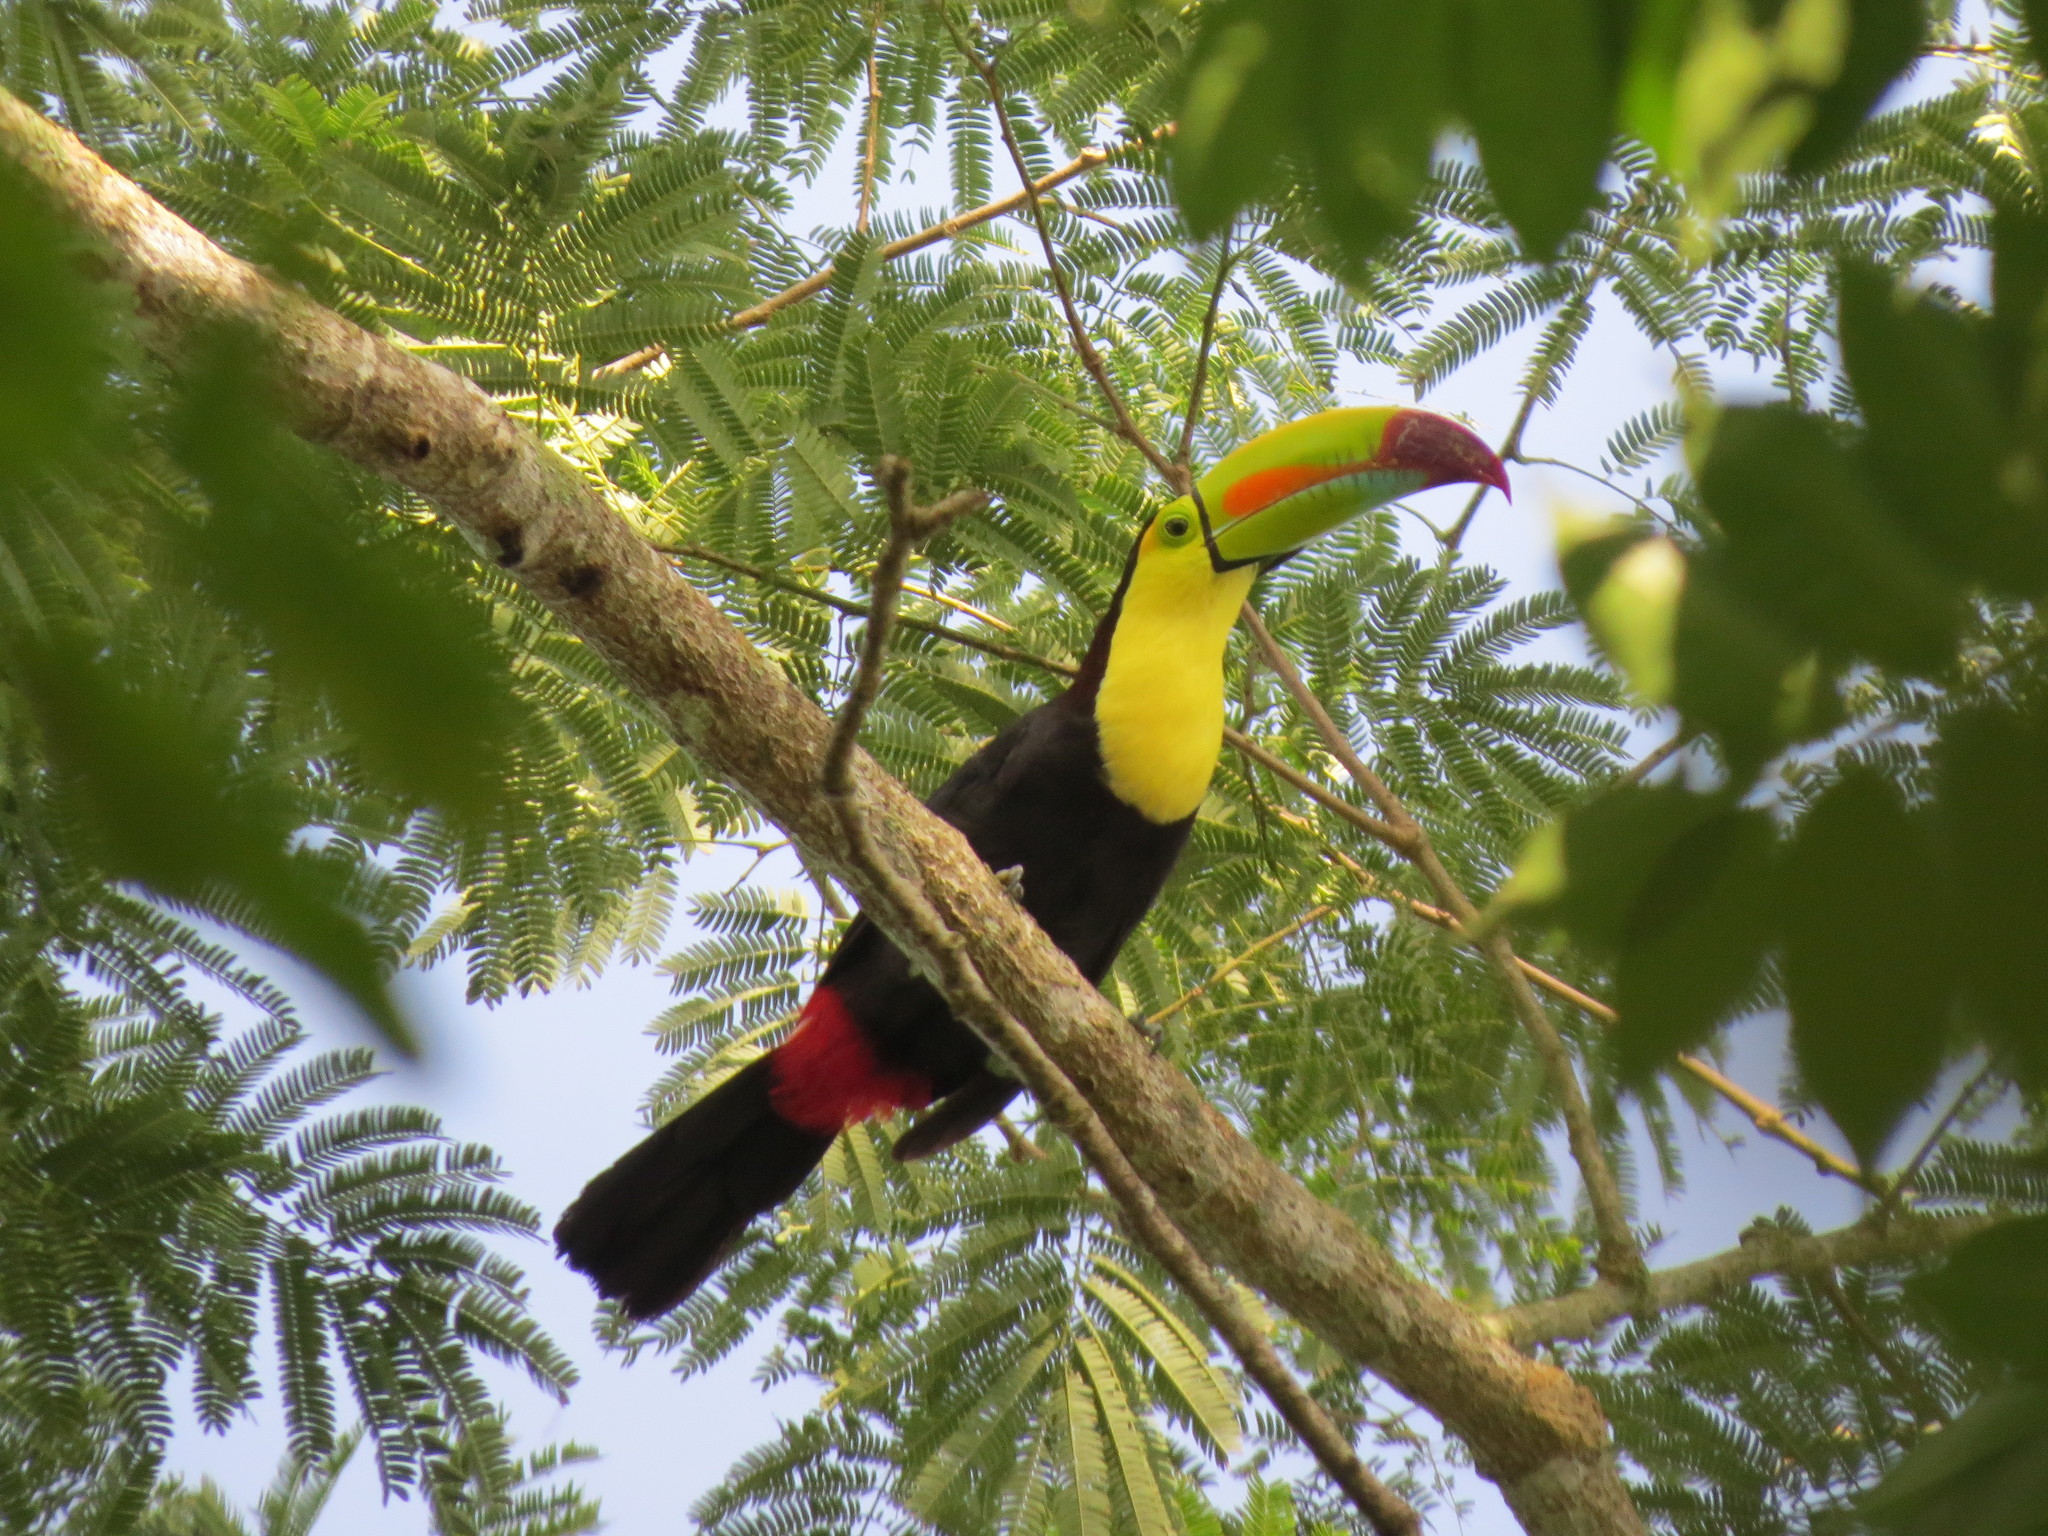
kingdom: Animalia
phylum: Chordata
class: Aves
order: Piciformes
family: Ramphastidae
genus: Ramphastos
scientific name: Ramphastos sulfuratus
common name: Keel-billed toucan
